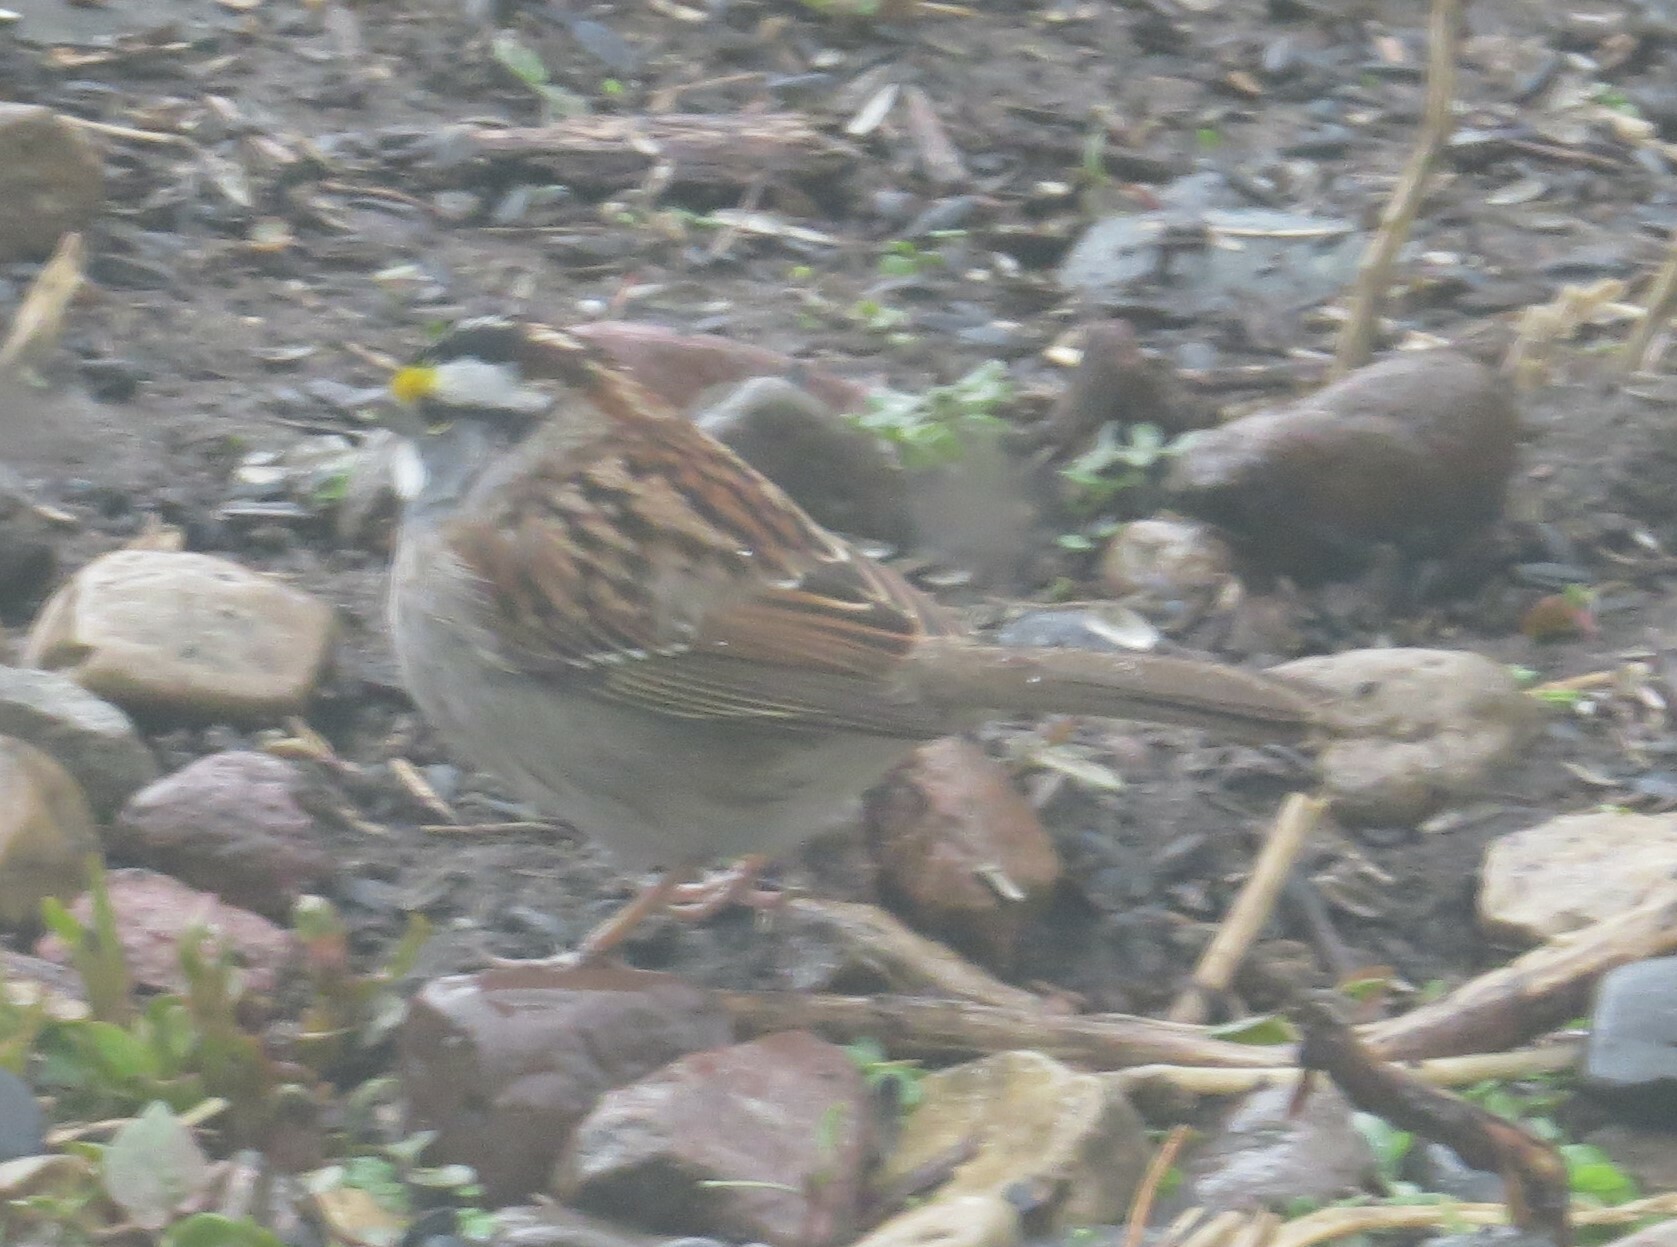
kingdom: Animalia
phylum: Chordata
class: Aves
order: Passeriformes
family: Passerellidae
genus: Zonotrichia
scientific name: Zonotrichia albicollis
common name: White-throated sparrow
